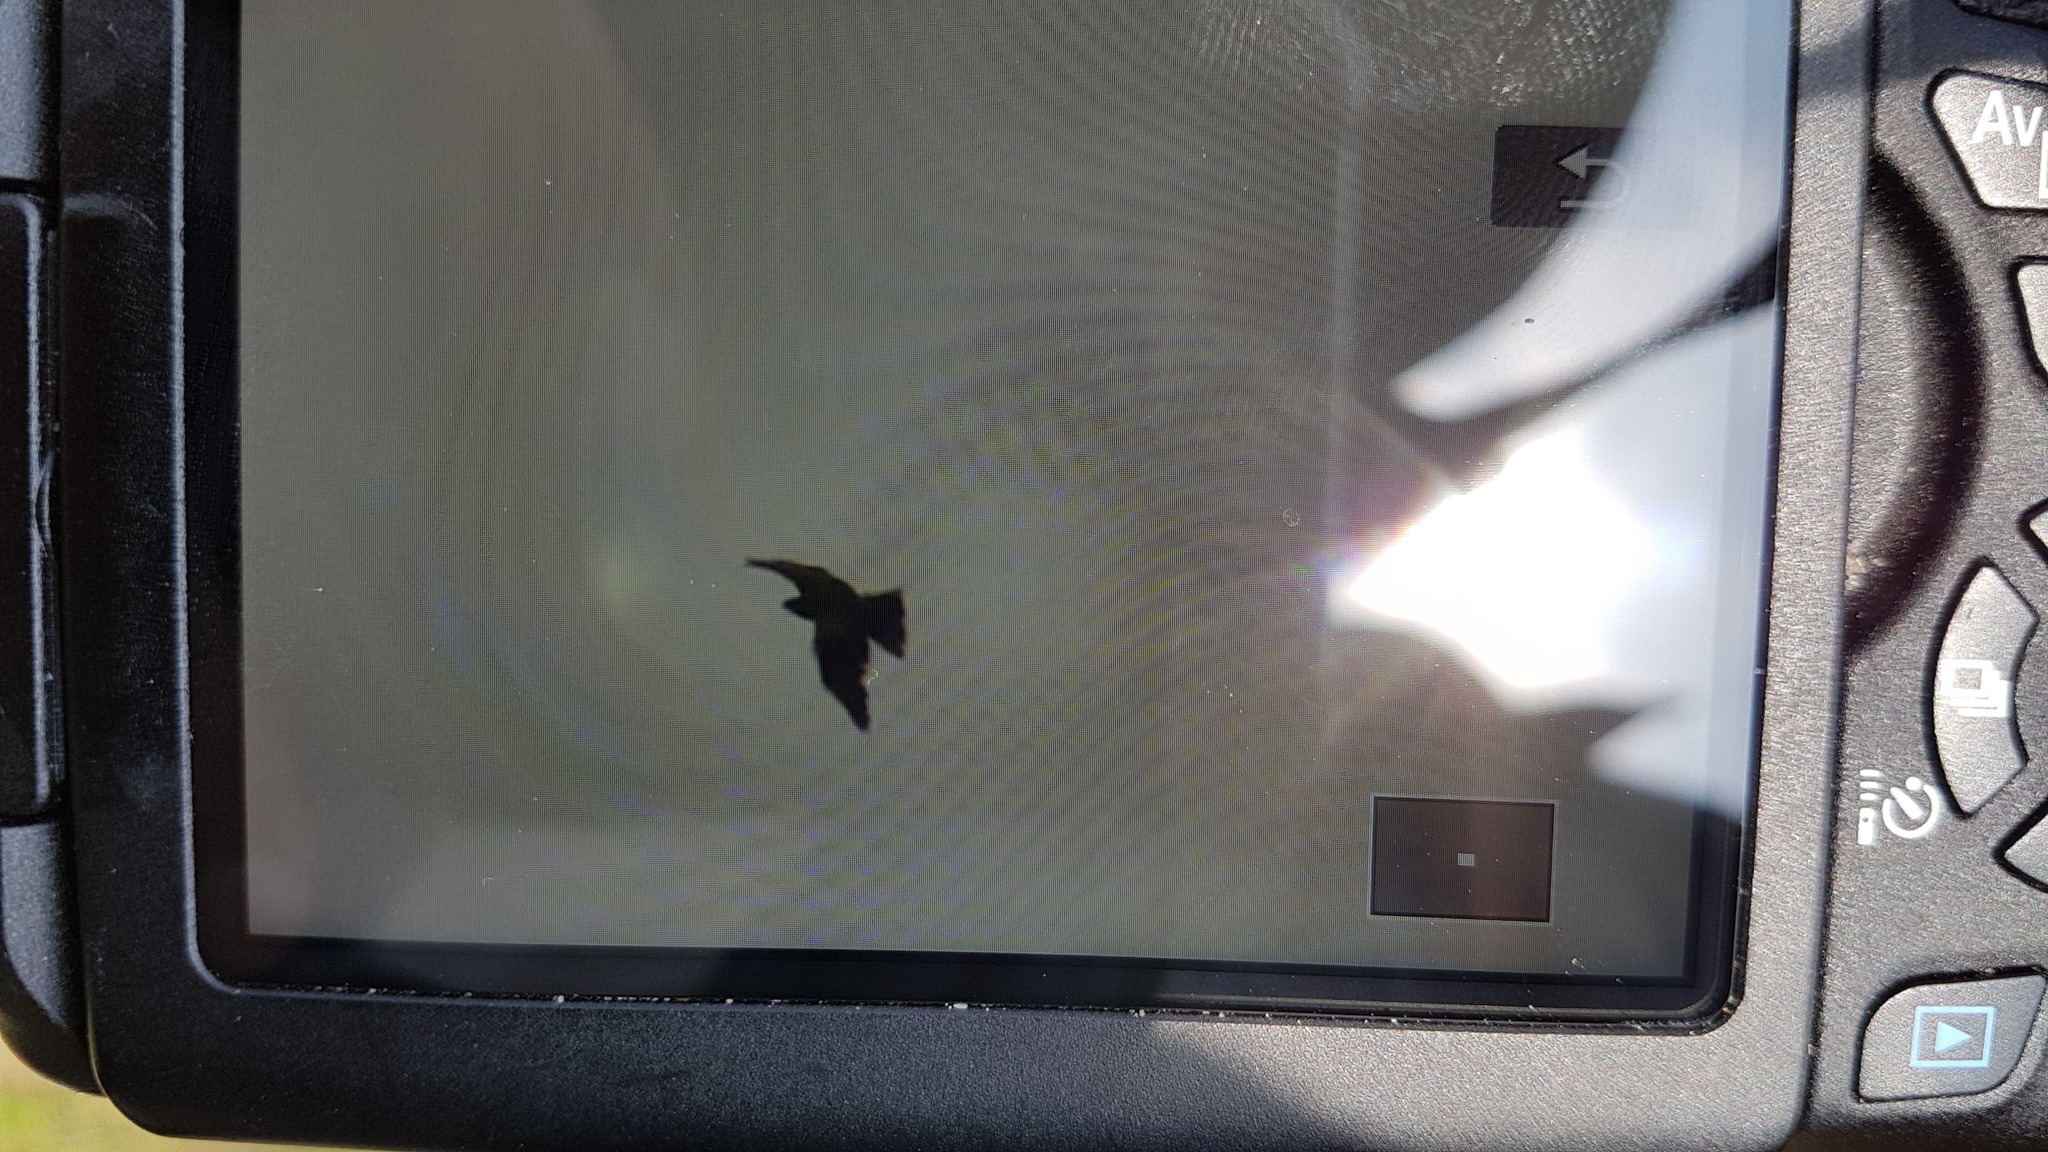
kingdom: Animalia
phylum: Chordata
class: Aves
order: Accipitriformes
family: Accipitridae
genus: Milvus
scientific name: Milvus migrans
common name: Black kite
